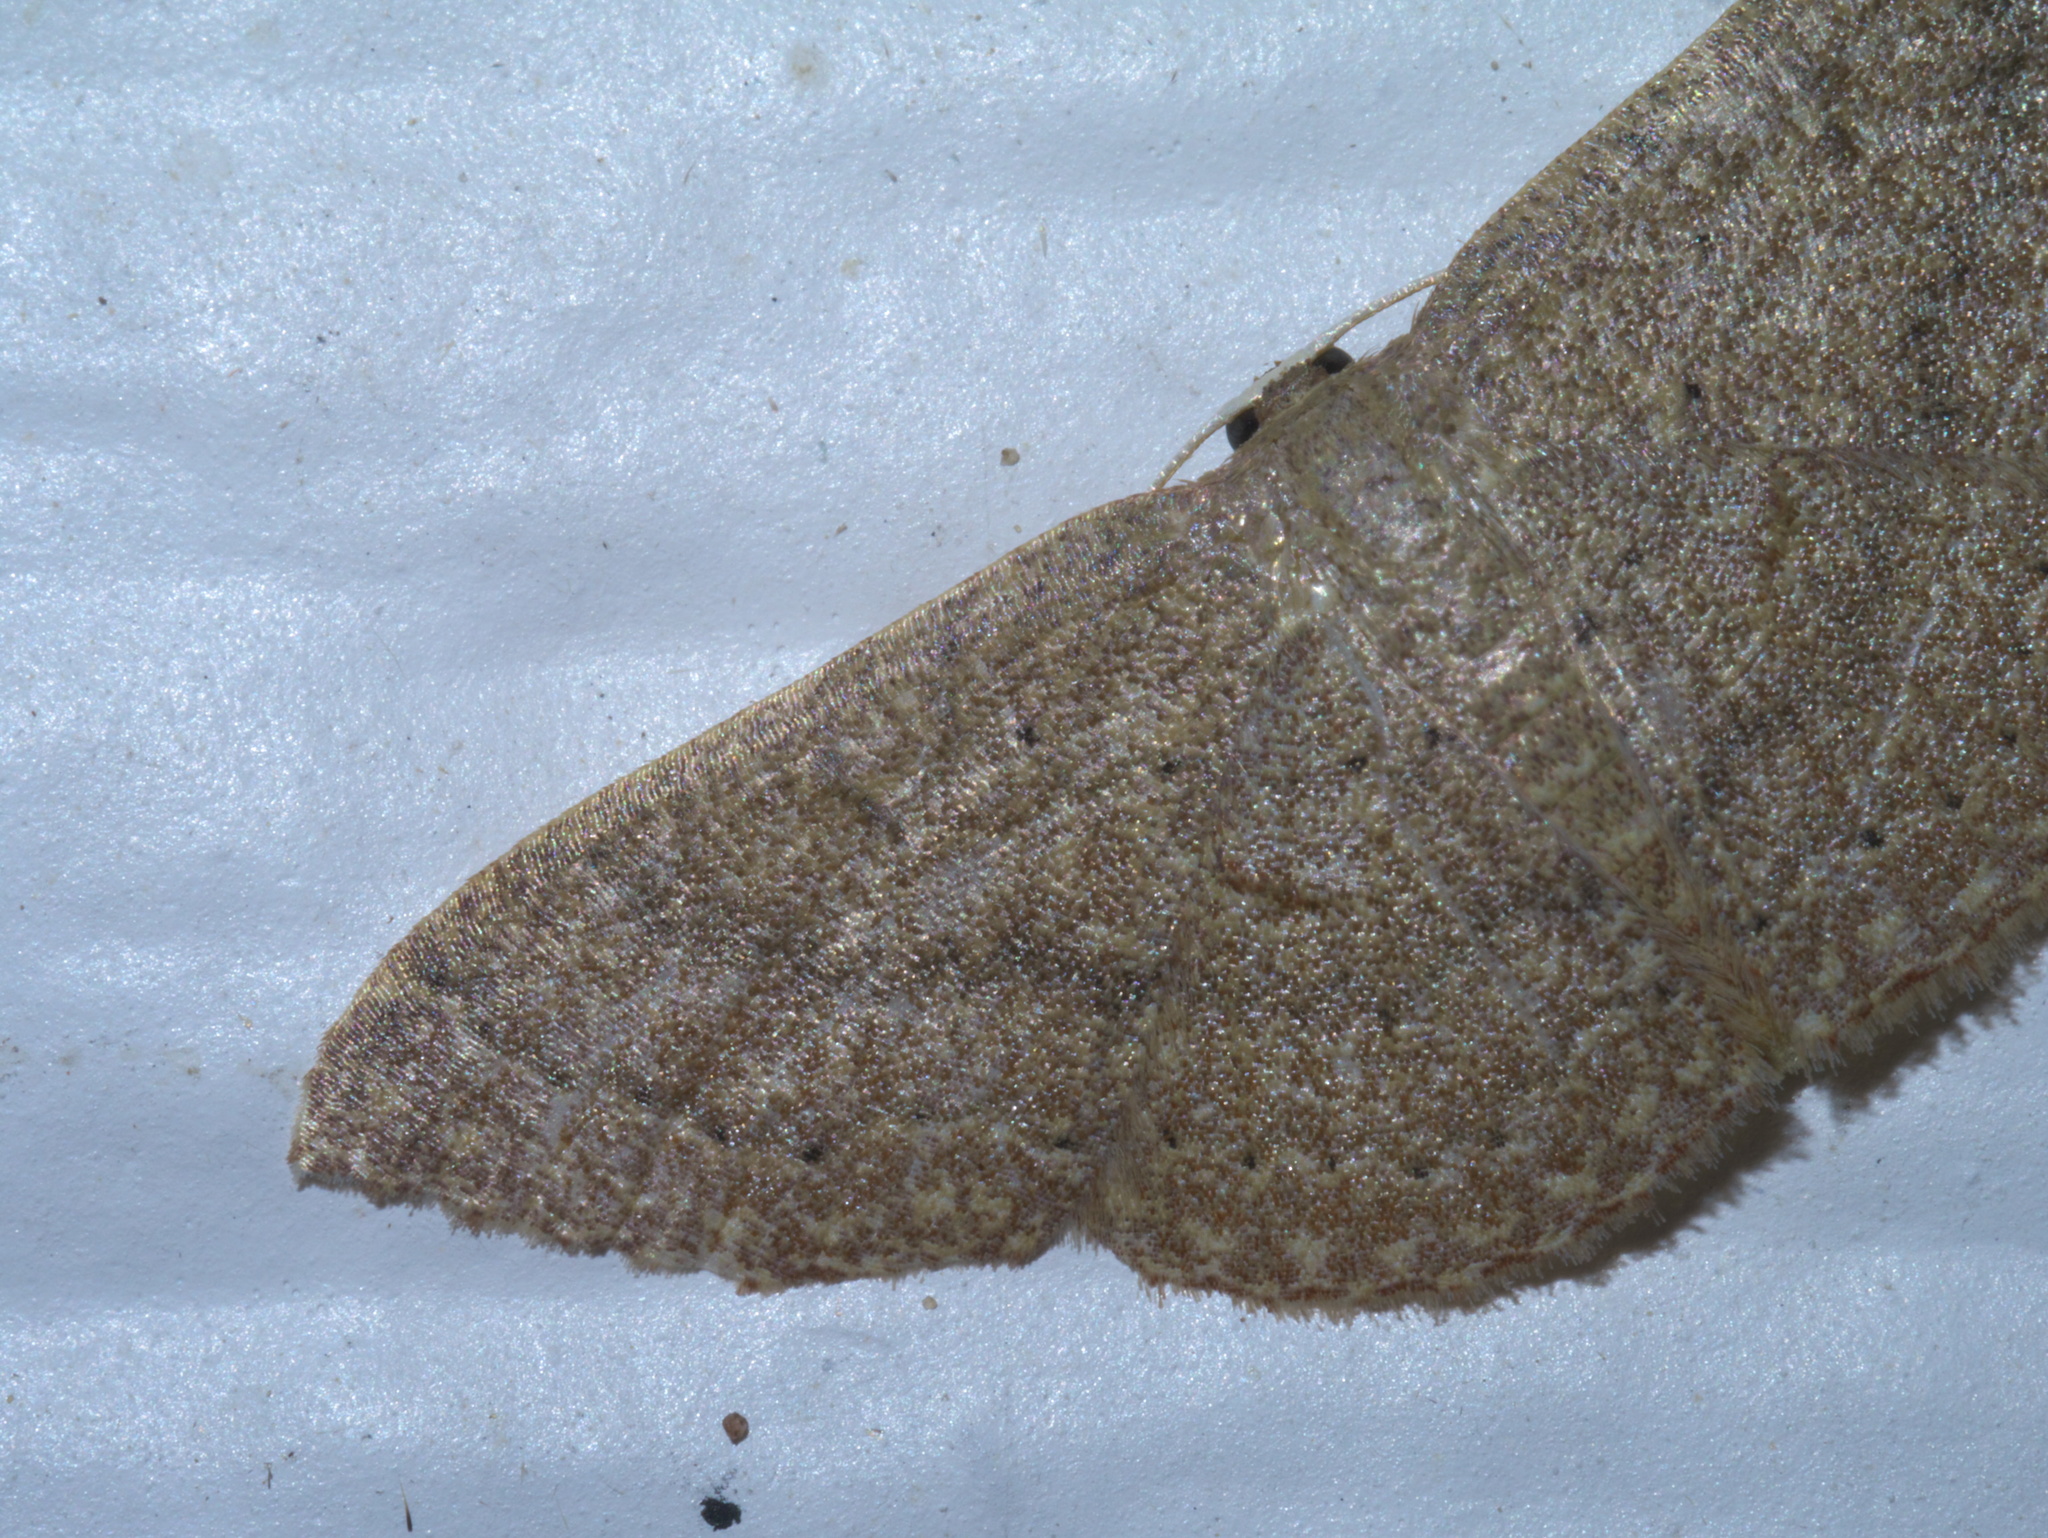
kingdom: Animalia
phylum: Arthropoda
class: Insecta
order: Lepidoptera
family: Geometridae
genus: Pleuroprucha
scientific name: Pleuroprucha insulsaria
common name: Common tan wave
